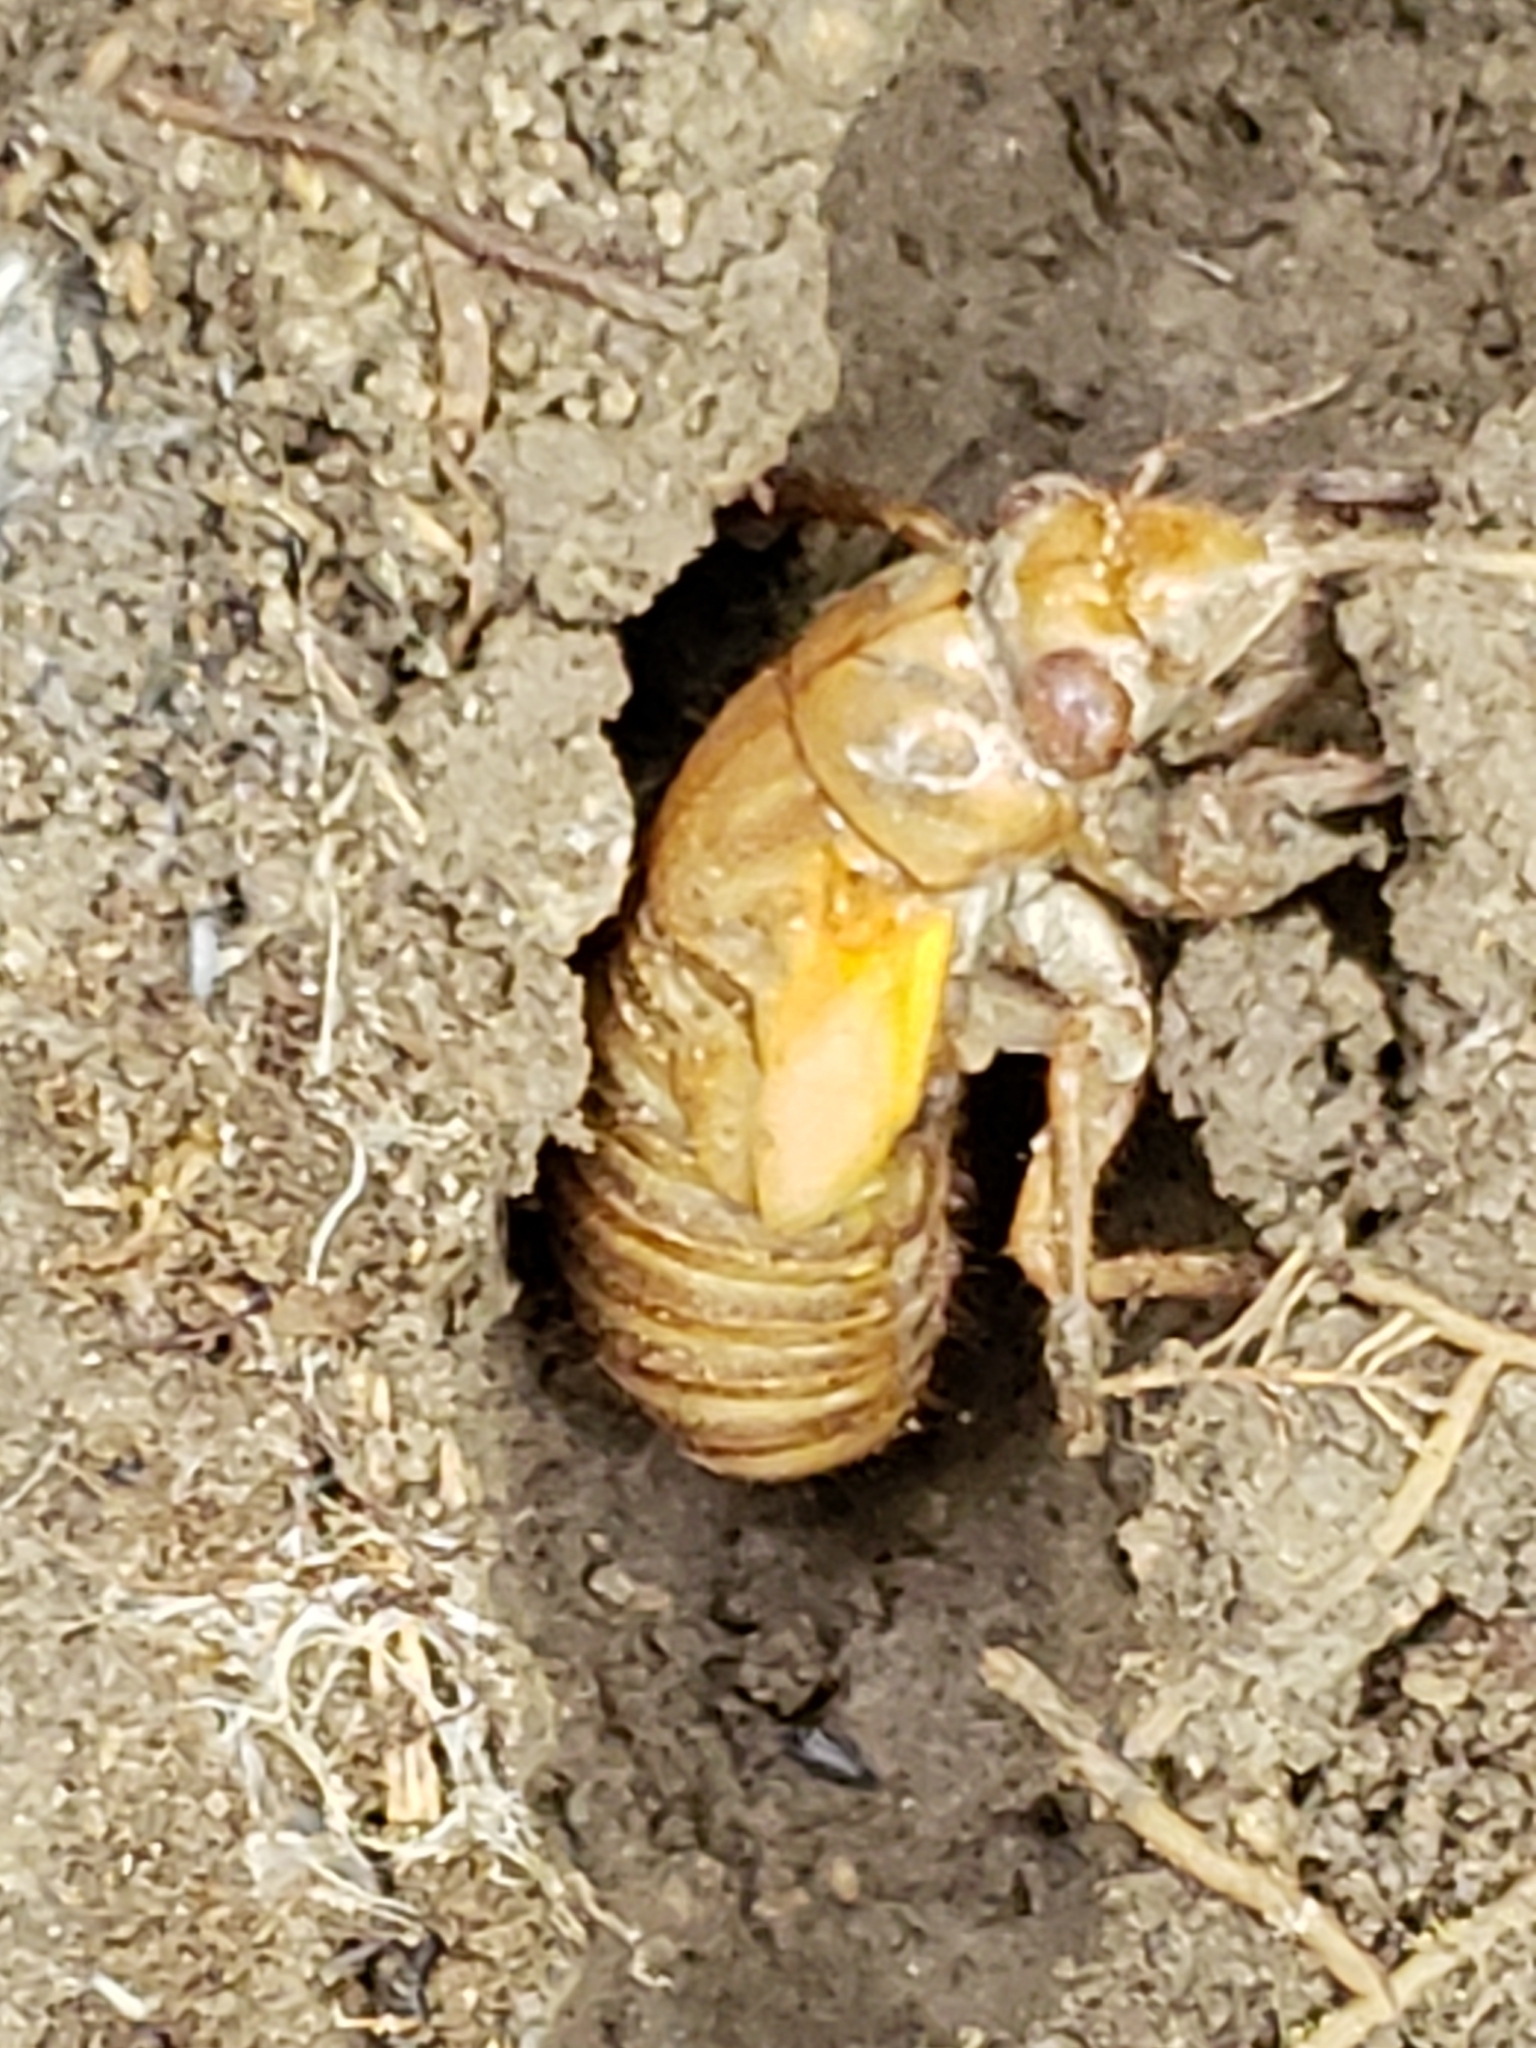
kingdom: Animalia
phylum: Arthropoda
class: Insecta
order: Hemiptera
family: Cicadidae
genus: Magicicada
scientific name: Magicicada
